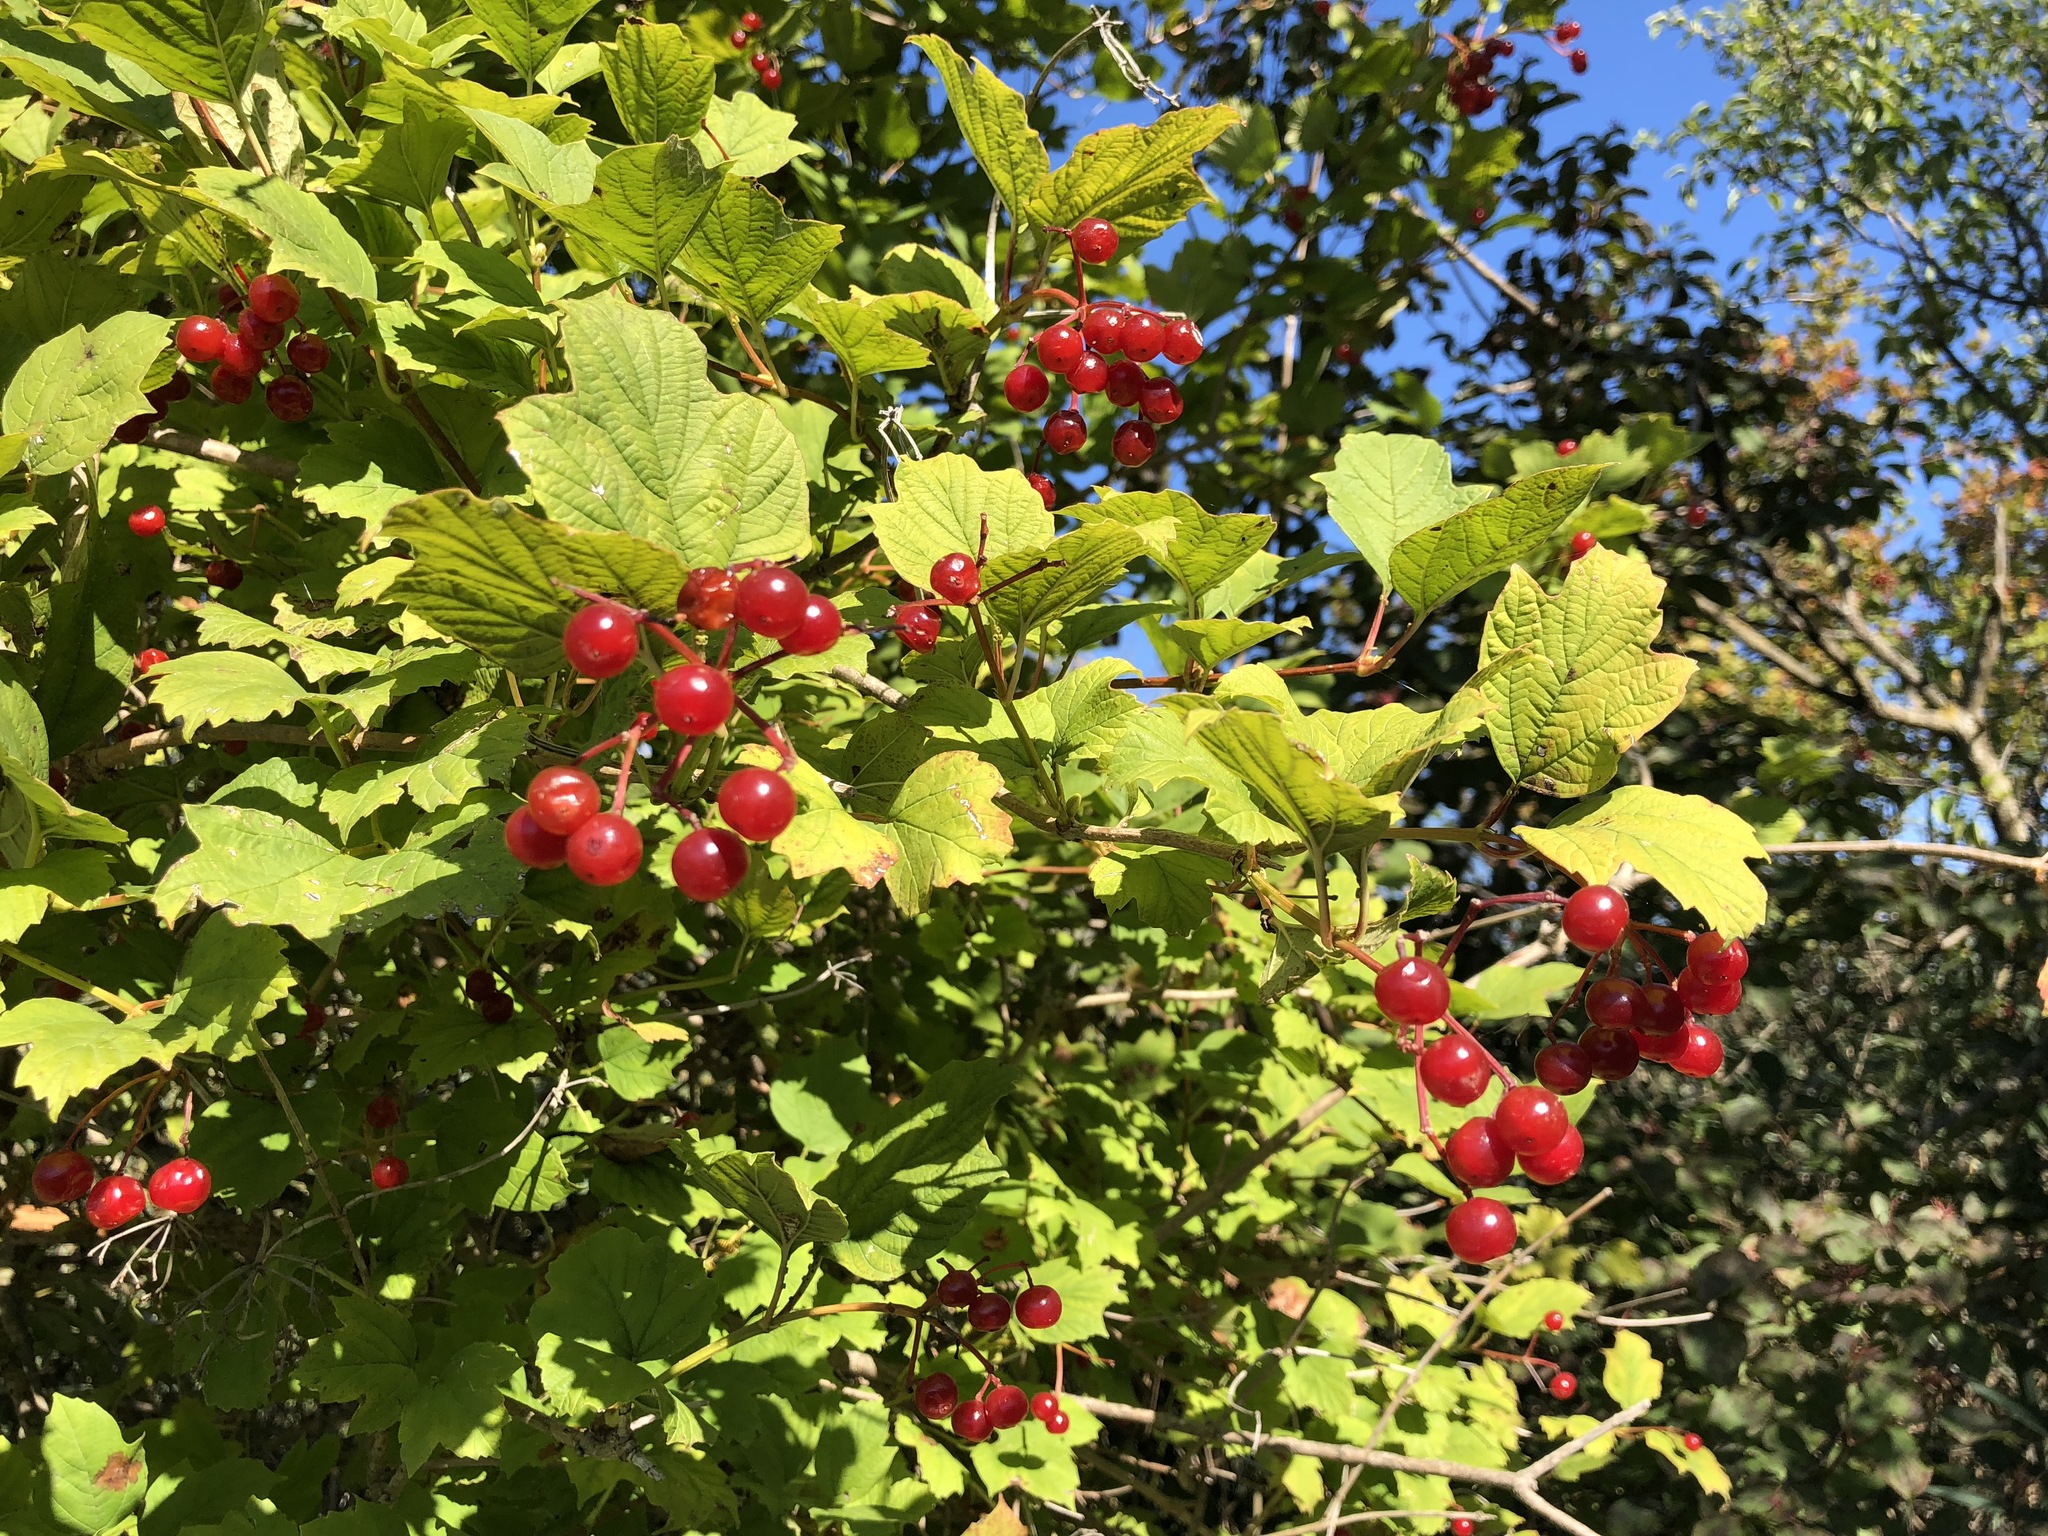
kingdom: Plantae
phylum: Tracheophyta
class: Magnoliopsida
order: Dipsacales
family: Viburnaceae
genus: Viburnum
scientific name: Viburnum opulus
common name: Guelder-rose
